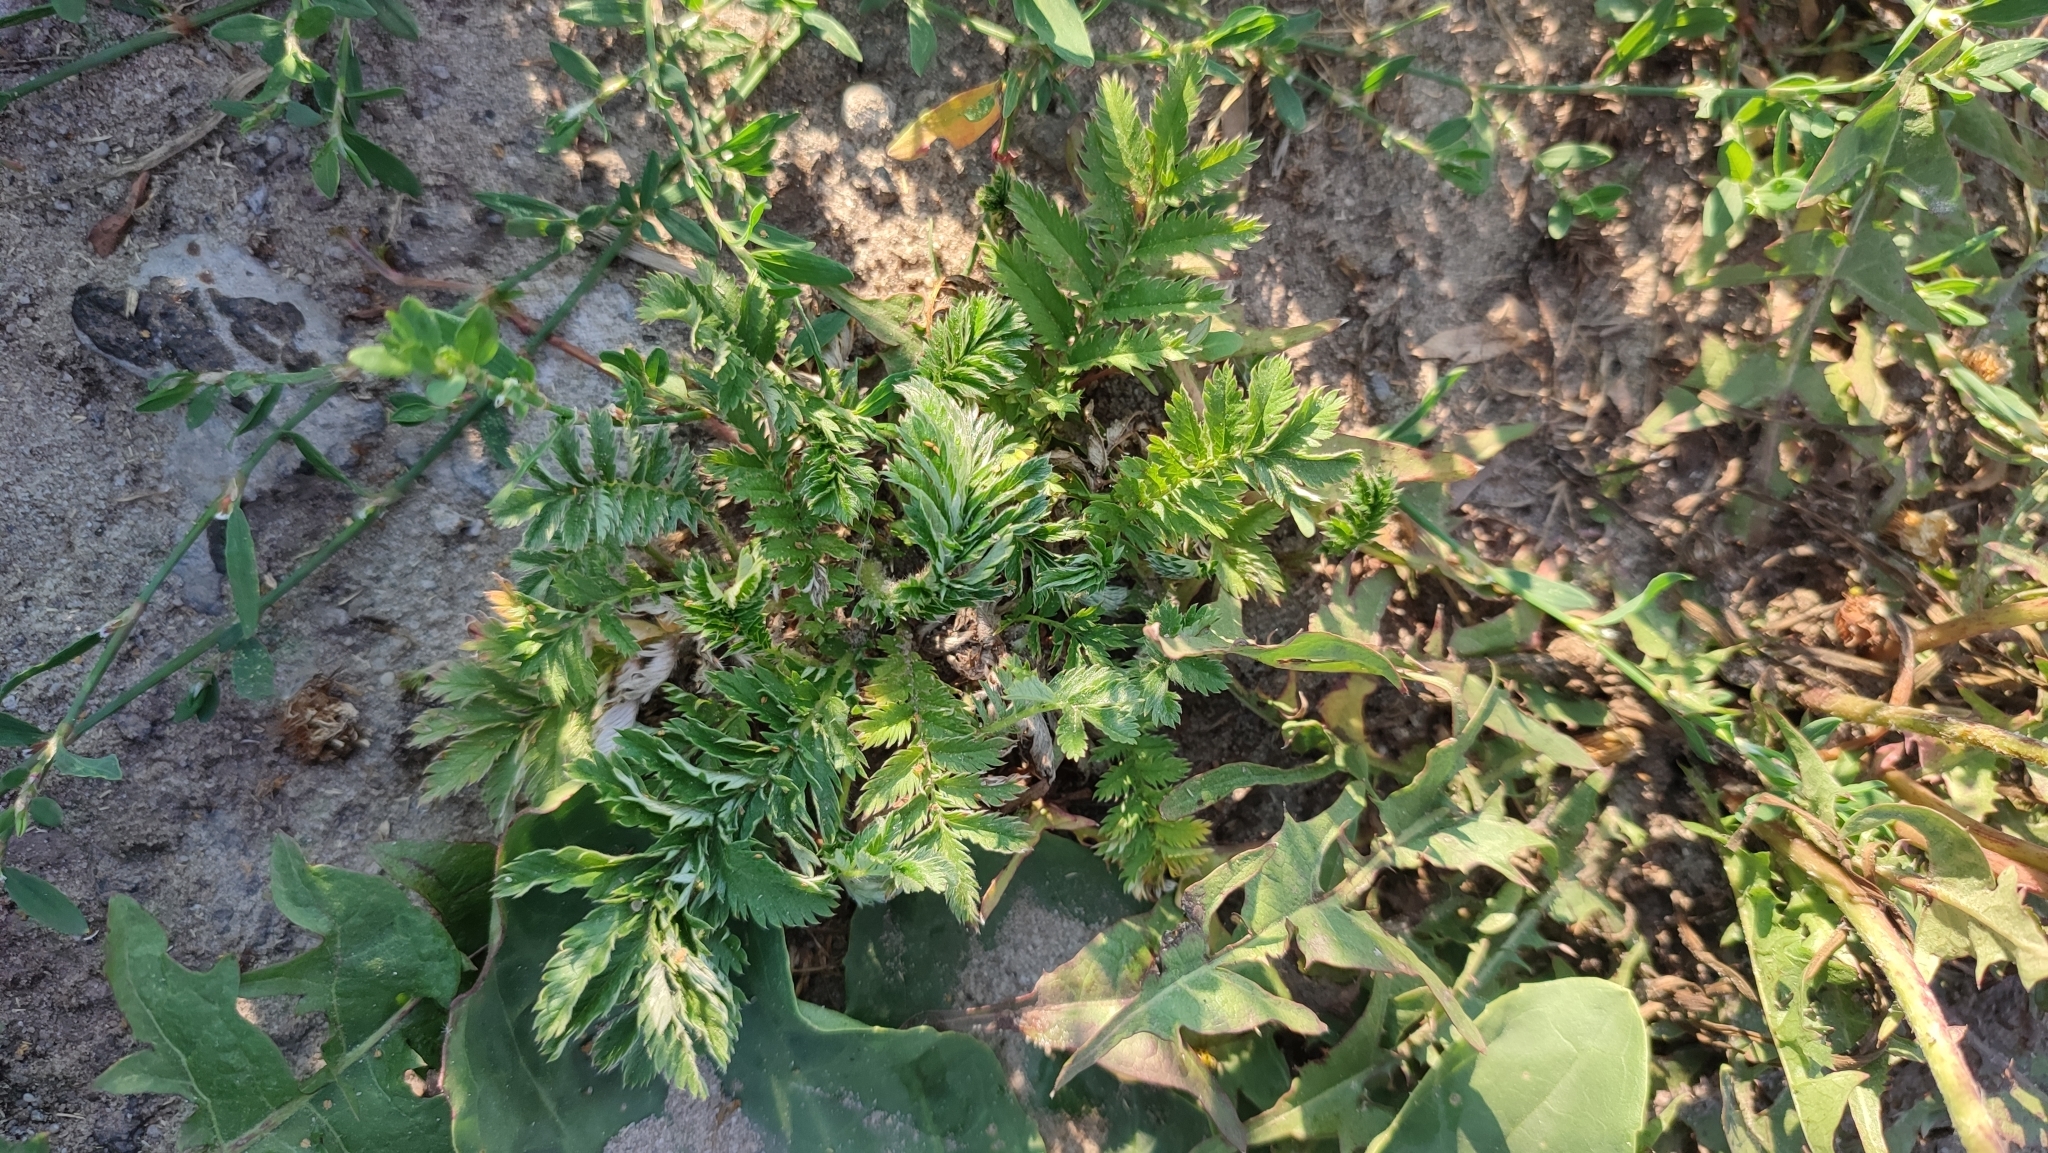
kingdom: Plantae
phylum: Tracheophyta
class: Magnoliopsida
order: Rosales
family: Rosaceae
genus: Argentina
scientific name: Argentina anserina
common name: Common silverweed
